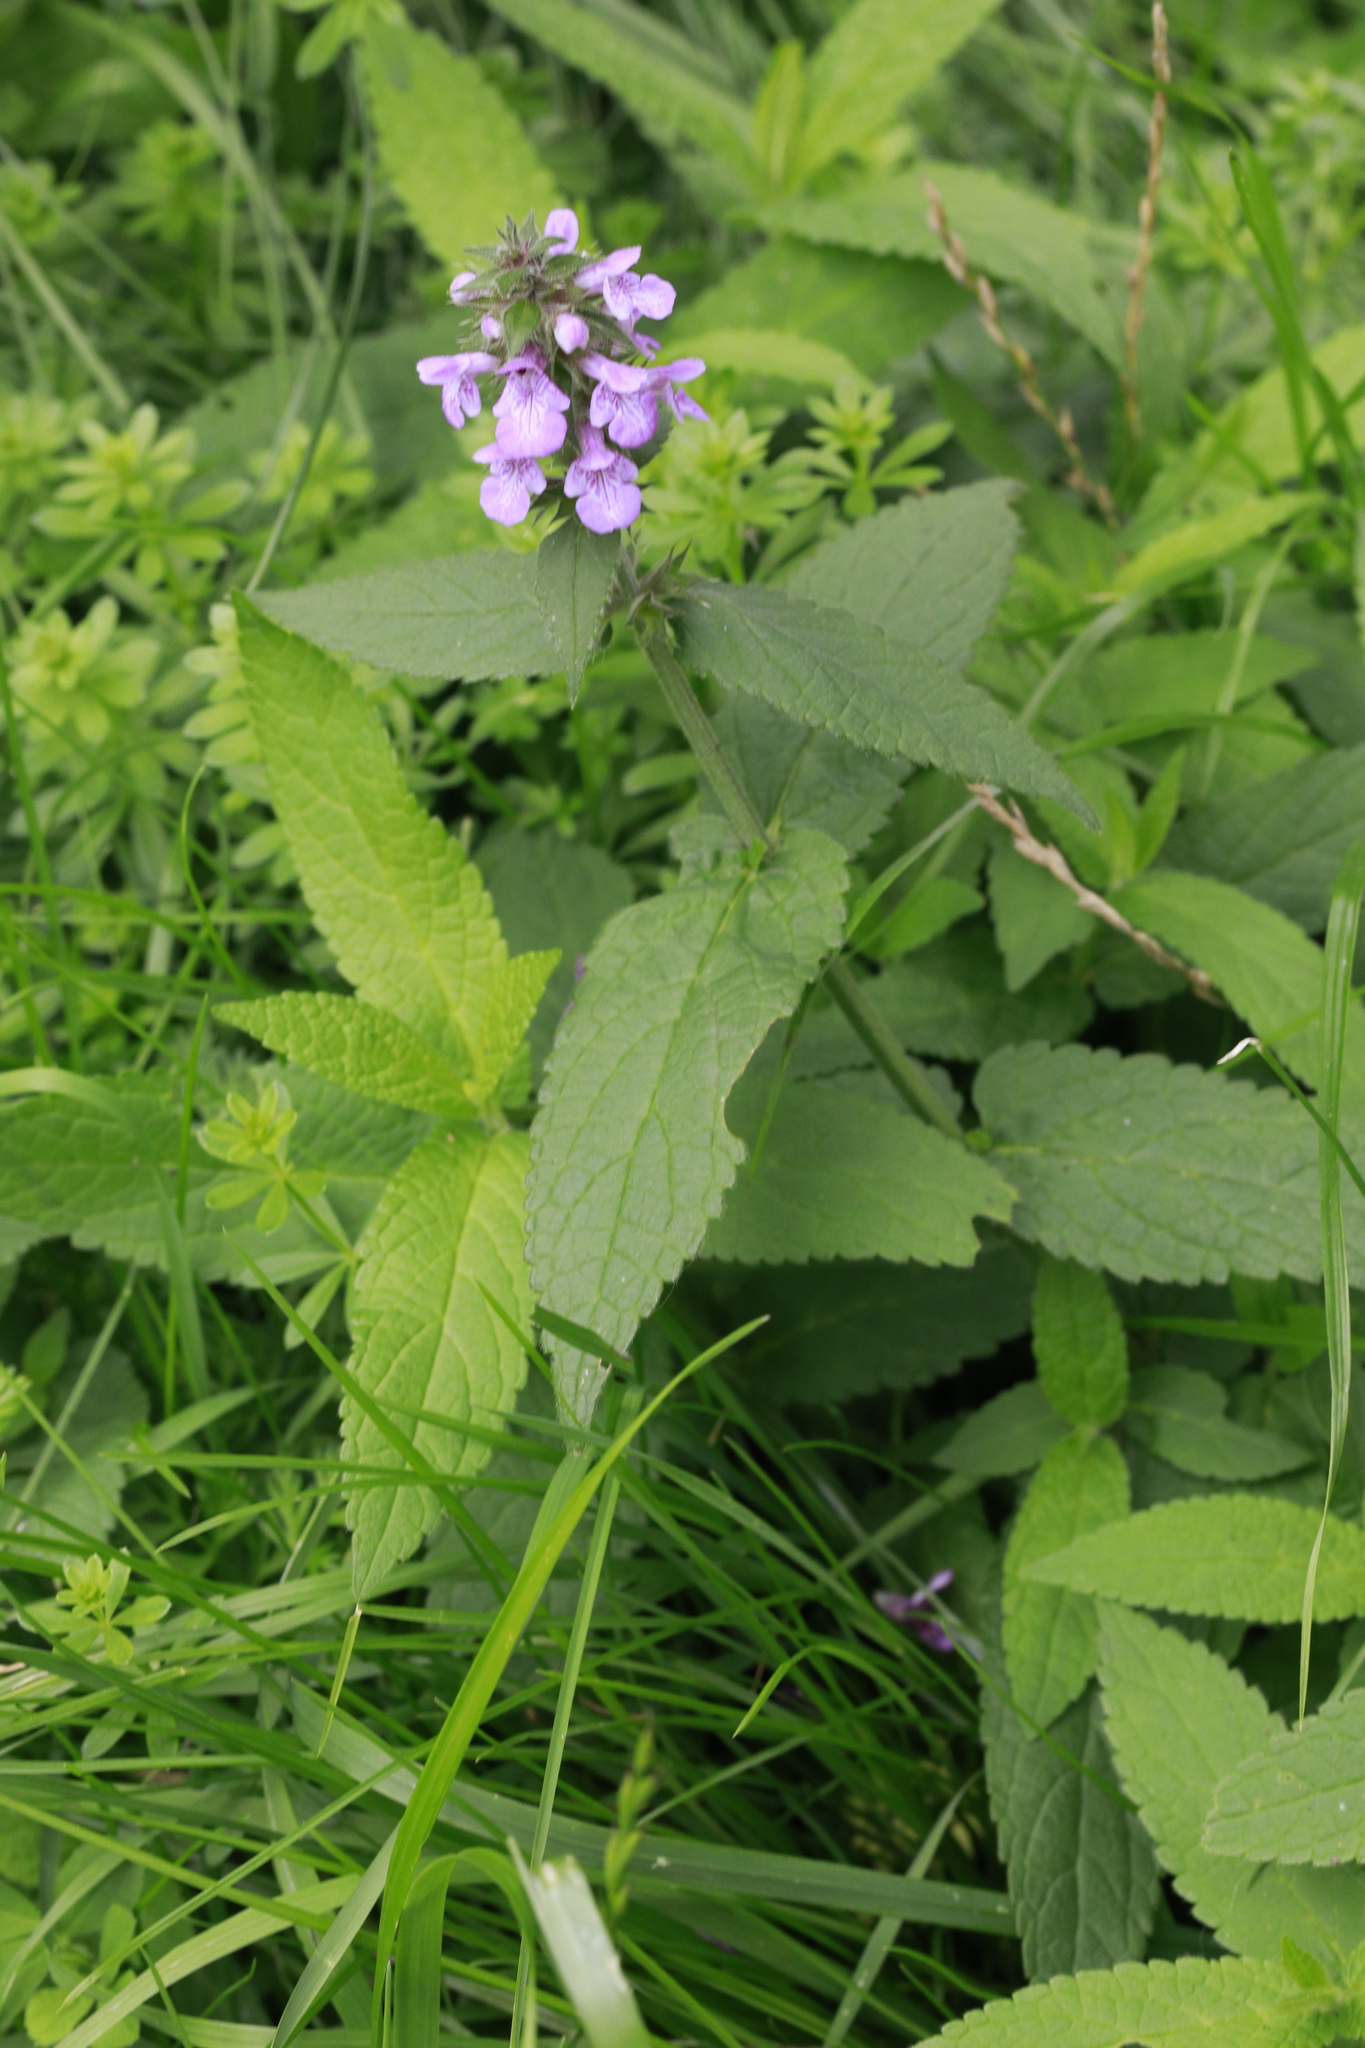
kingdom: Plantae
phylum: Tracheophyta
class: Magnoliopsida
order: Lamiales
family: Lamiaceae
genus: Stachys
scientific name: Stachys palustris
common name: Marsh woundwort
